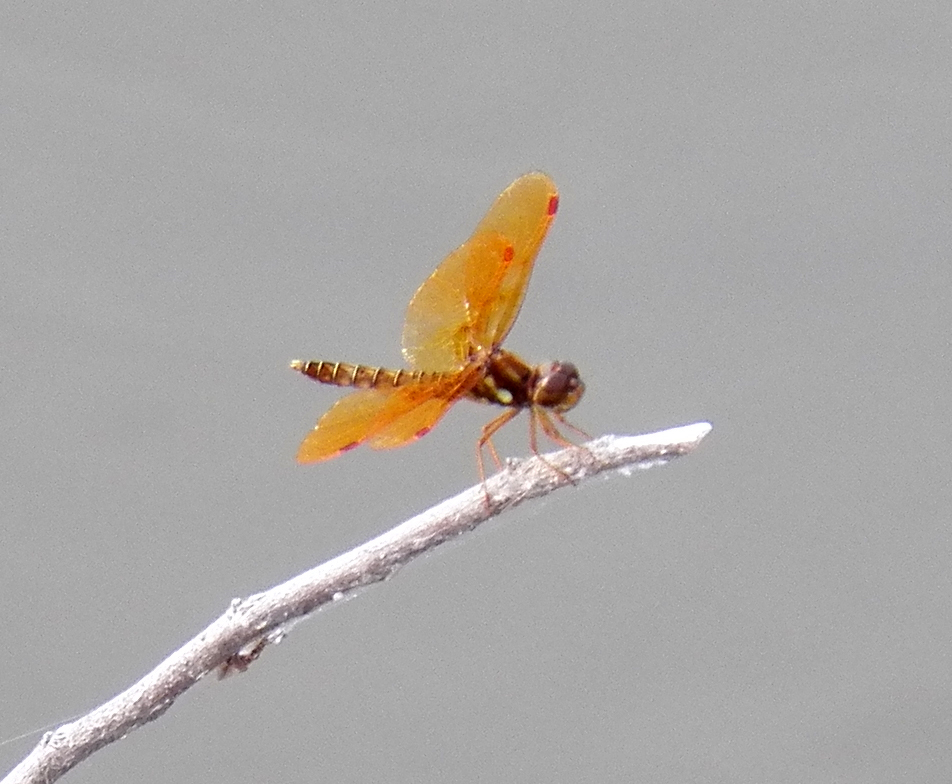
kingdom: Animalia
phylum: Arthropoda
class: Insecta
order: Odonata
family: Libellulidae
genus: Perithemis
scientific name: Perithemis tenera
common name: Eastern amberwing
